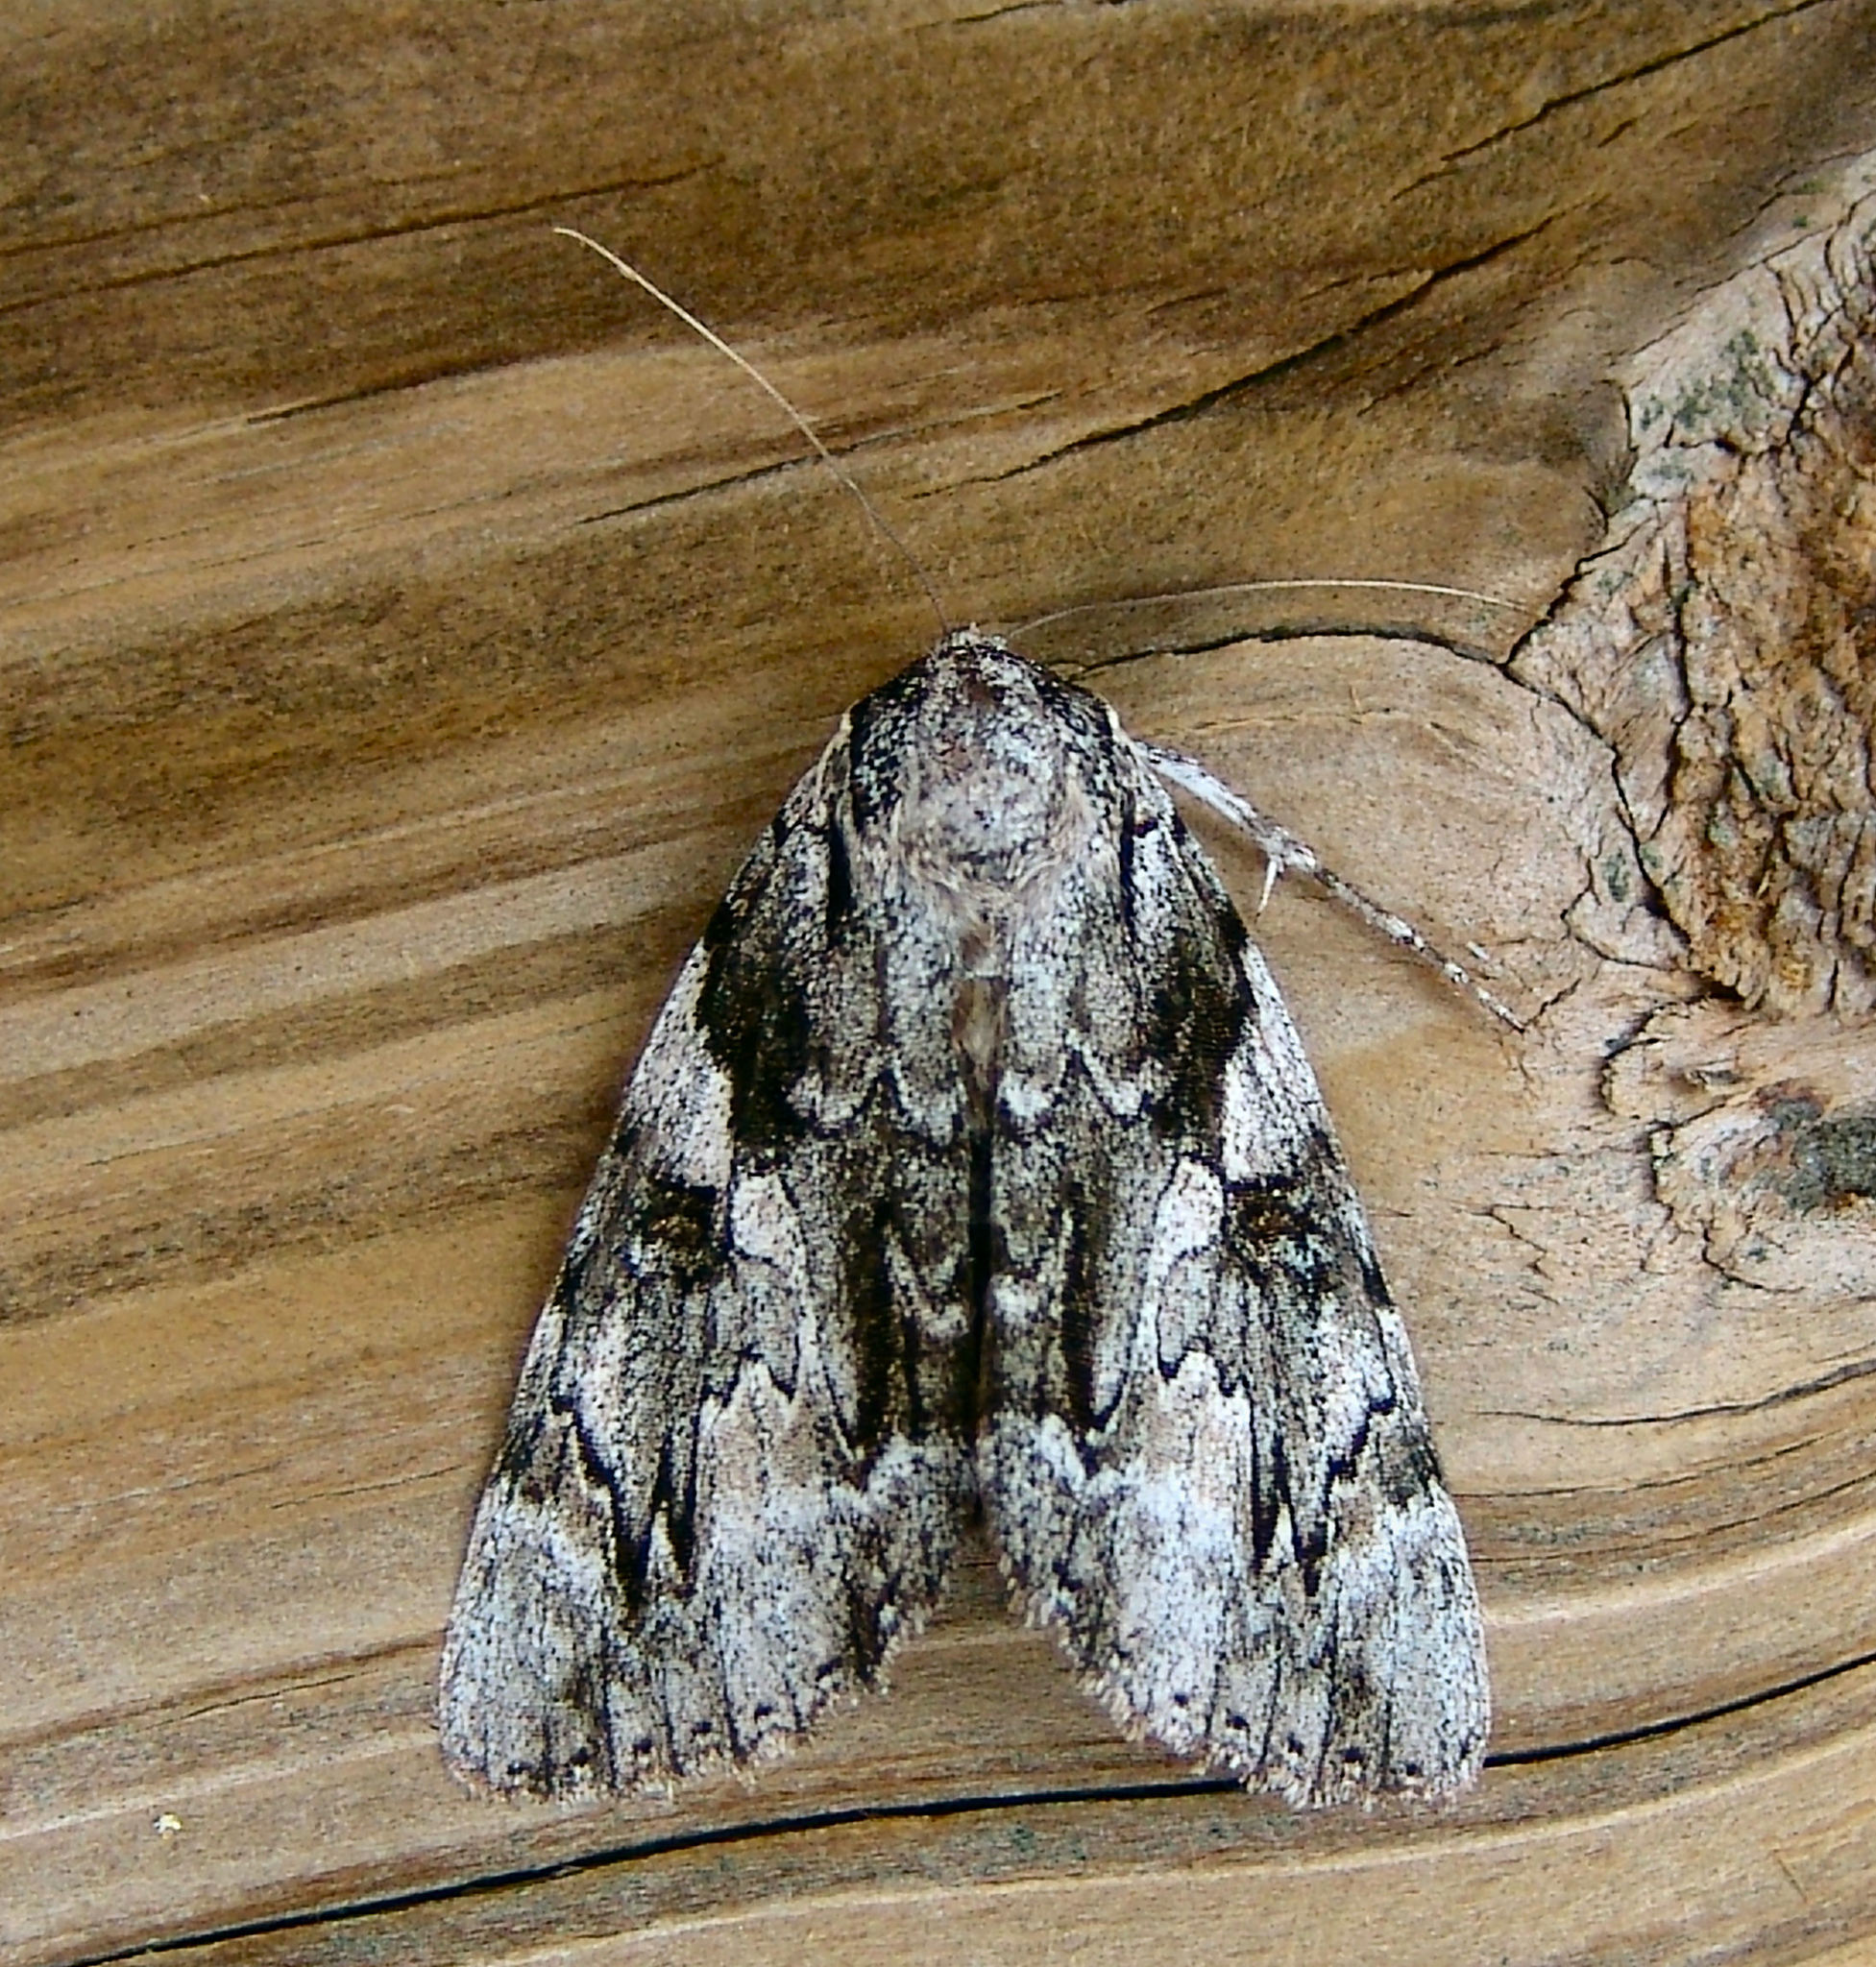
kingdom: Animalia
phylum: Arthropoda
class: Insecta
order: Lepidoptera
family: Erebidae
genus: Catocala
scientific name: Catocala dejecta
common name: Dejected underwing
